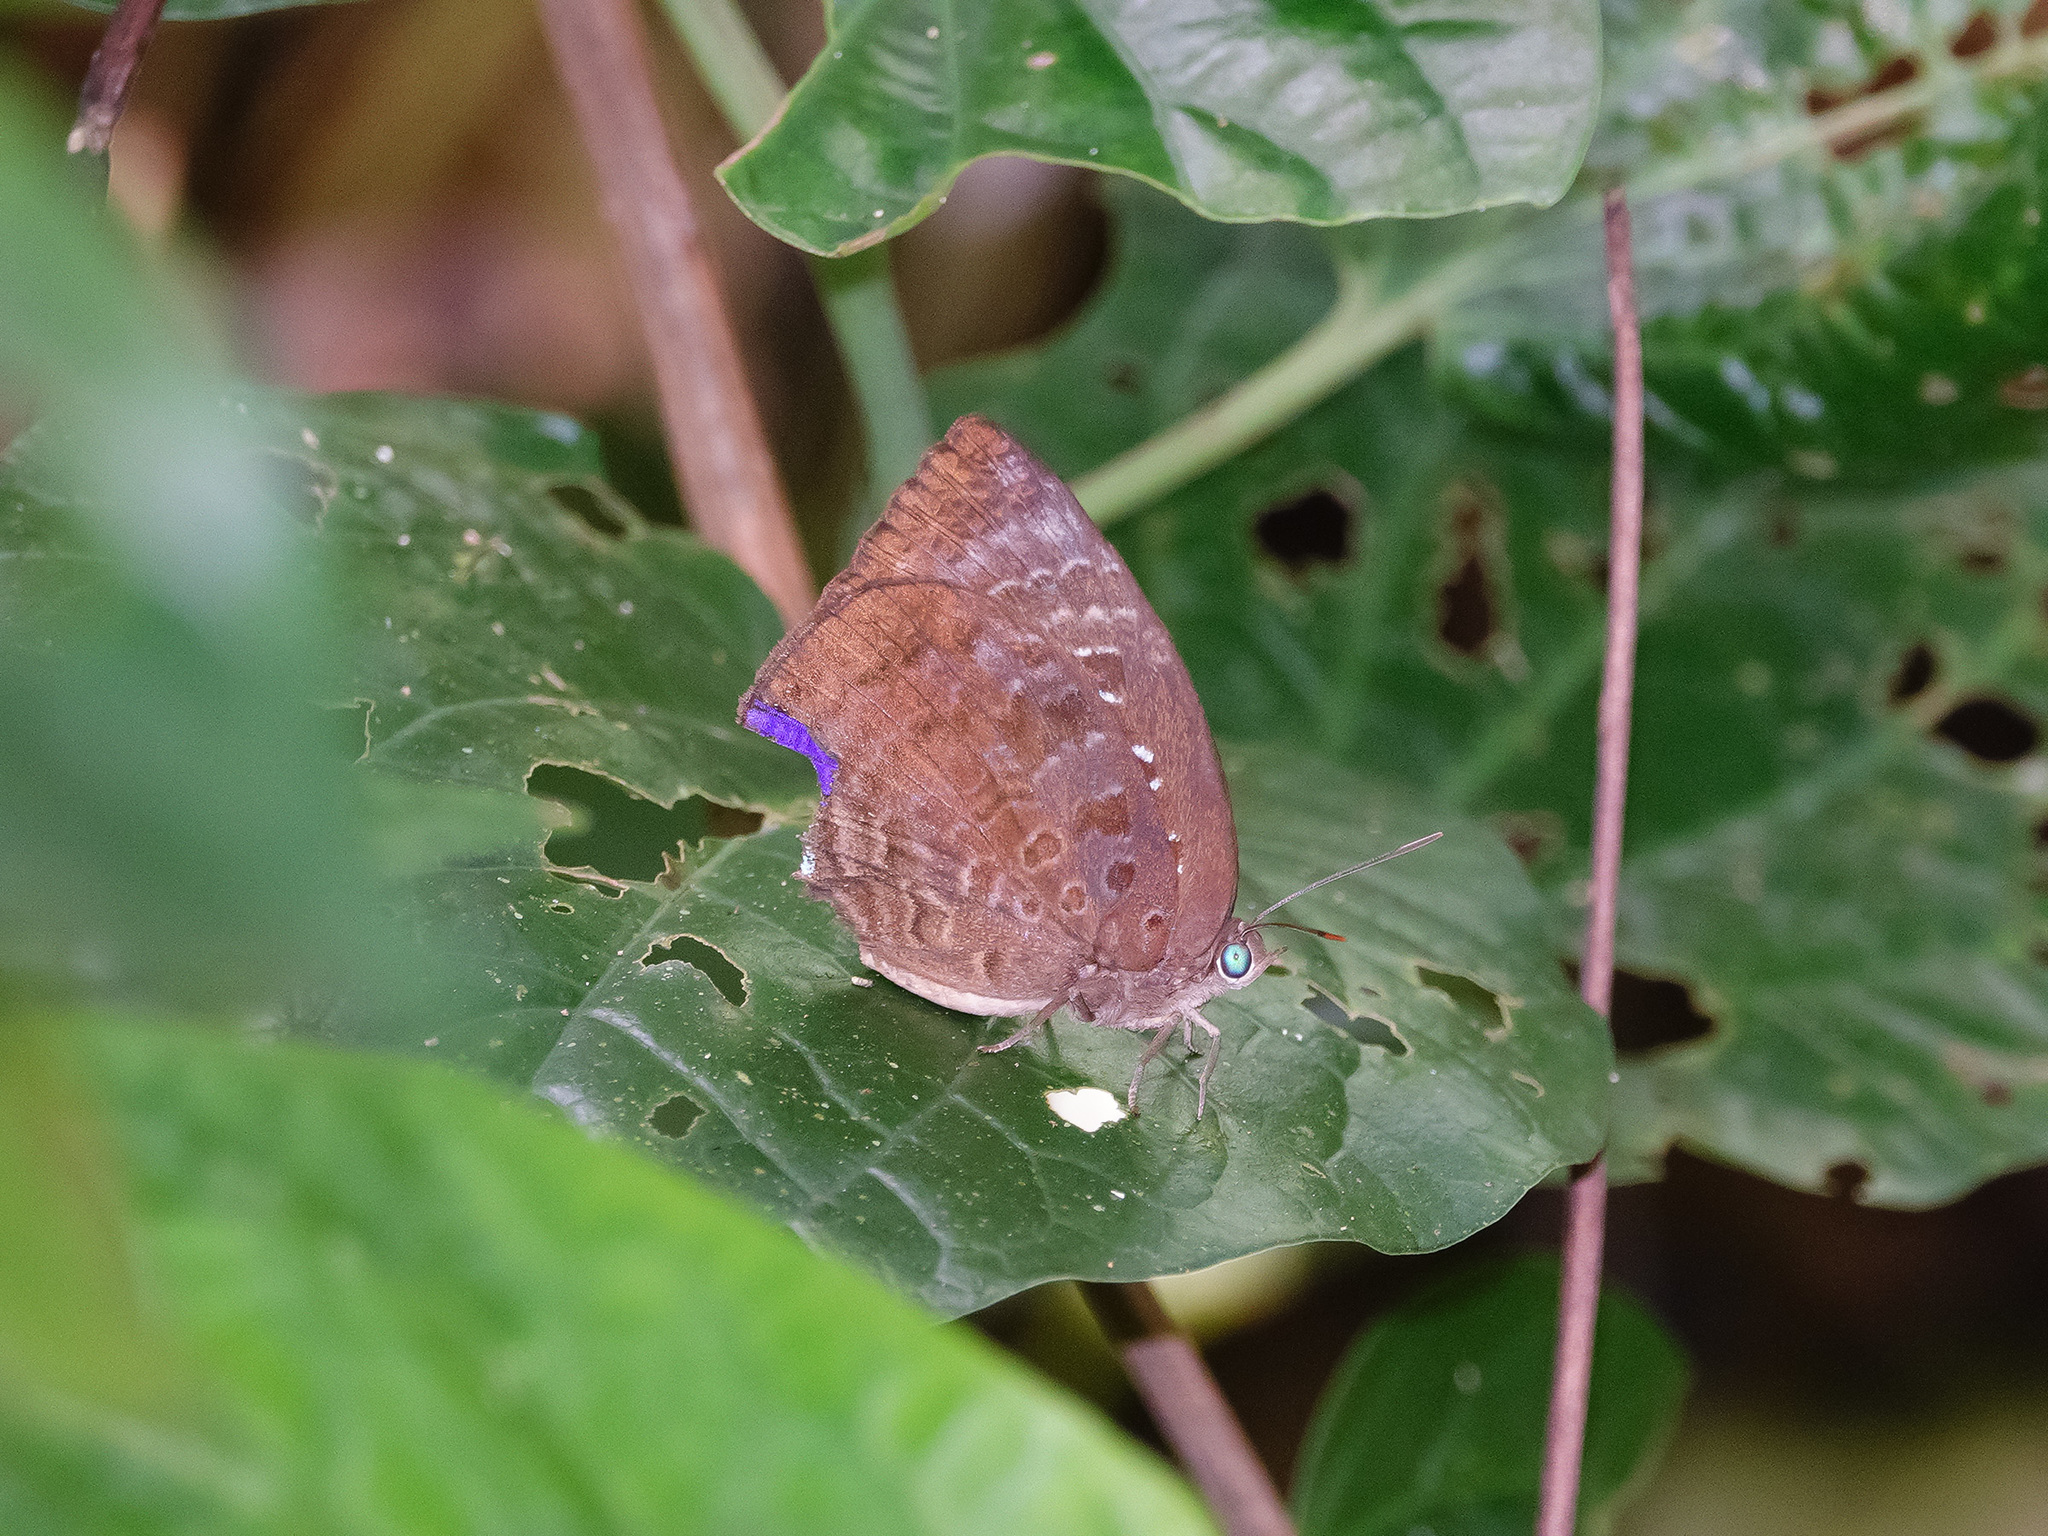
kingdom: Animalia
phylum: Arthropoda
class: Insecta
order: Lepidoptera
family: Lycaenidae
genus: Arhopala
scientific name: Arhopala centaurus
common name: Dull oak-blue
